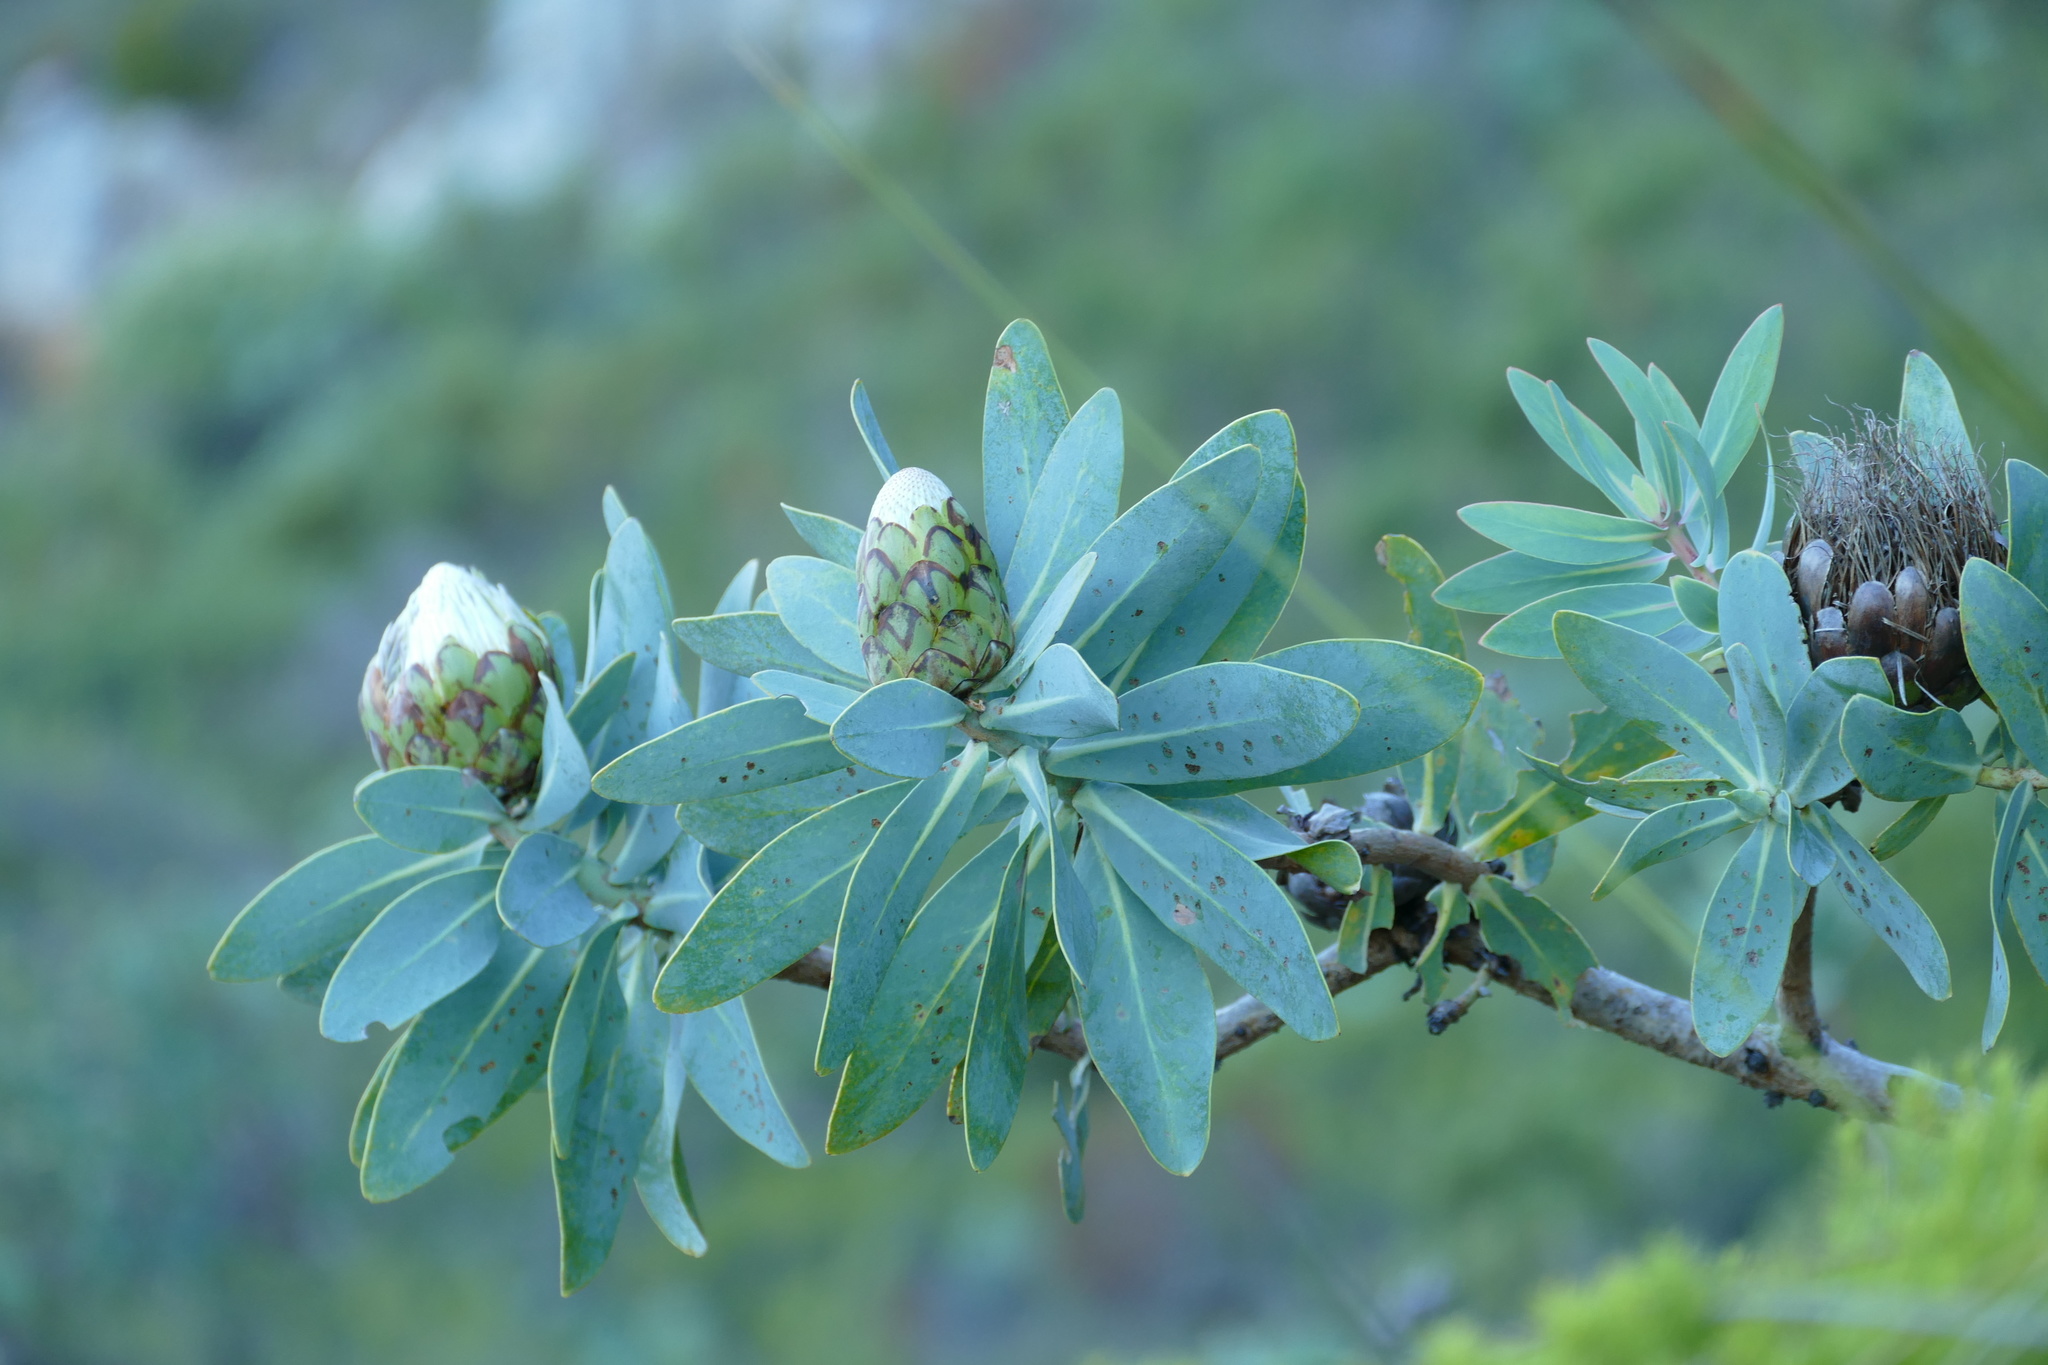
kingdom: Plantae
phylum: Tracheophyta
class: Magnoliopsida
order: Proteales
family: Proteaceae
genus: Protea
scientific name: Protea nitida
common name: Tree protea
